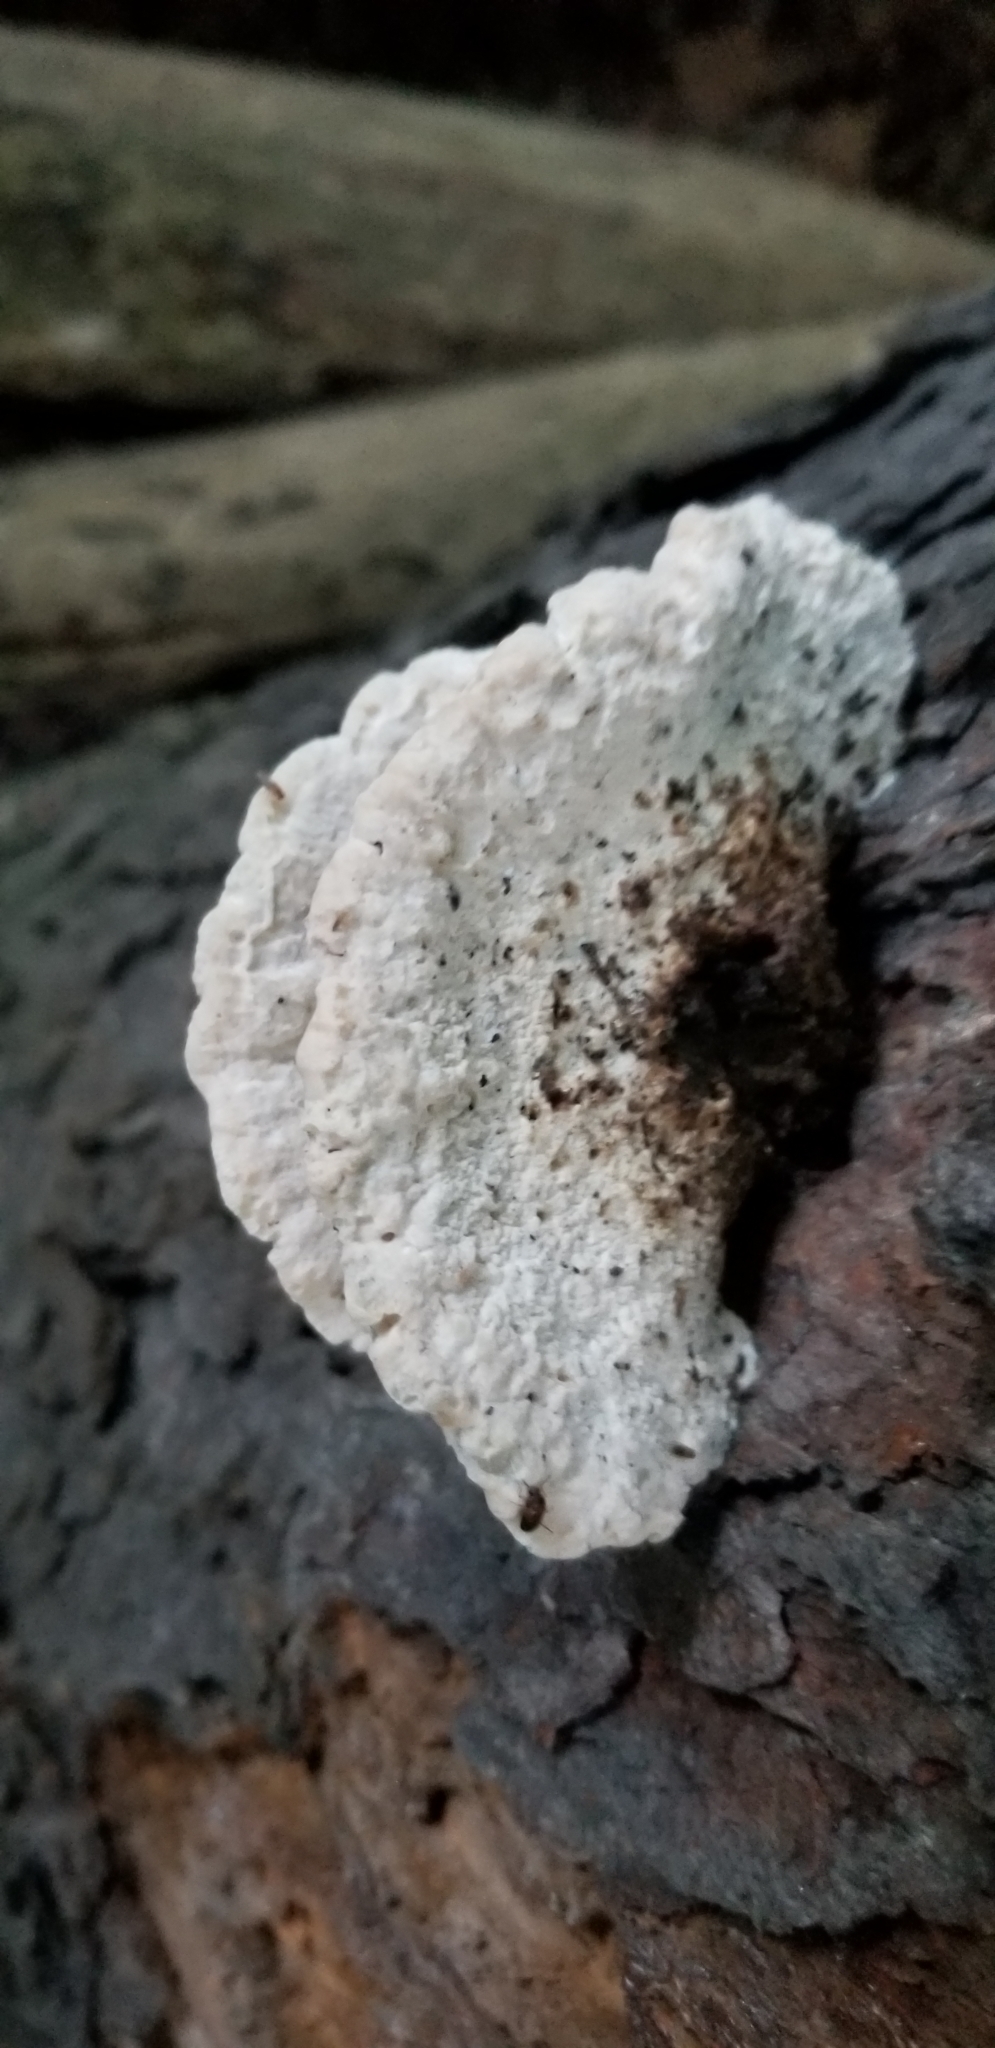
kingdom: Fungi
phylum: Basidiomycota
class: Agaricomycetes
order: Polyporales
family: Incrustoporiaceae
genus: Tyromyces
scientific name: Tyromyces chioneus
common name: White cheese polypore
